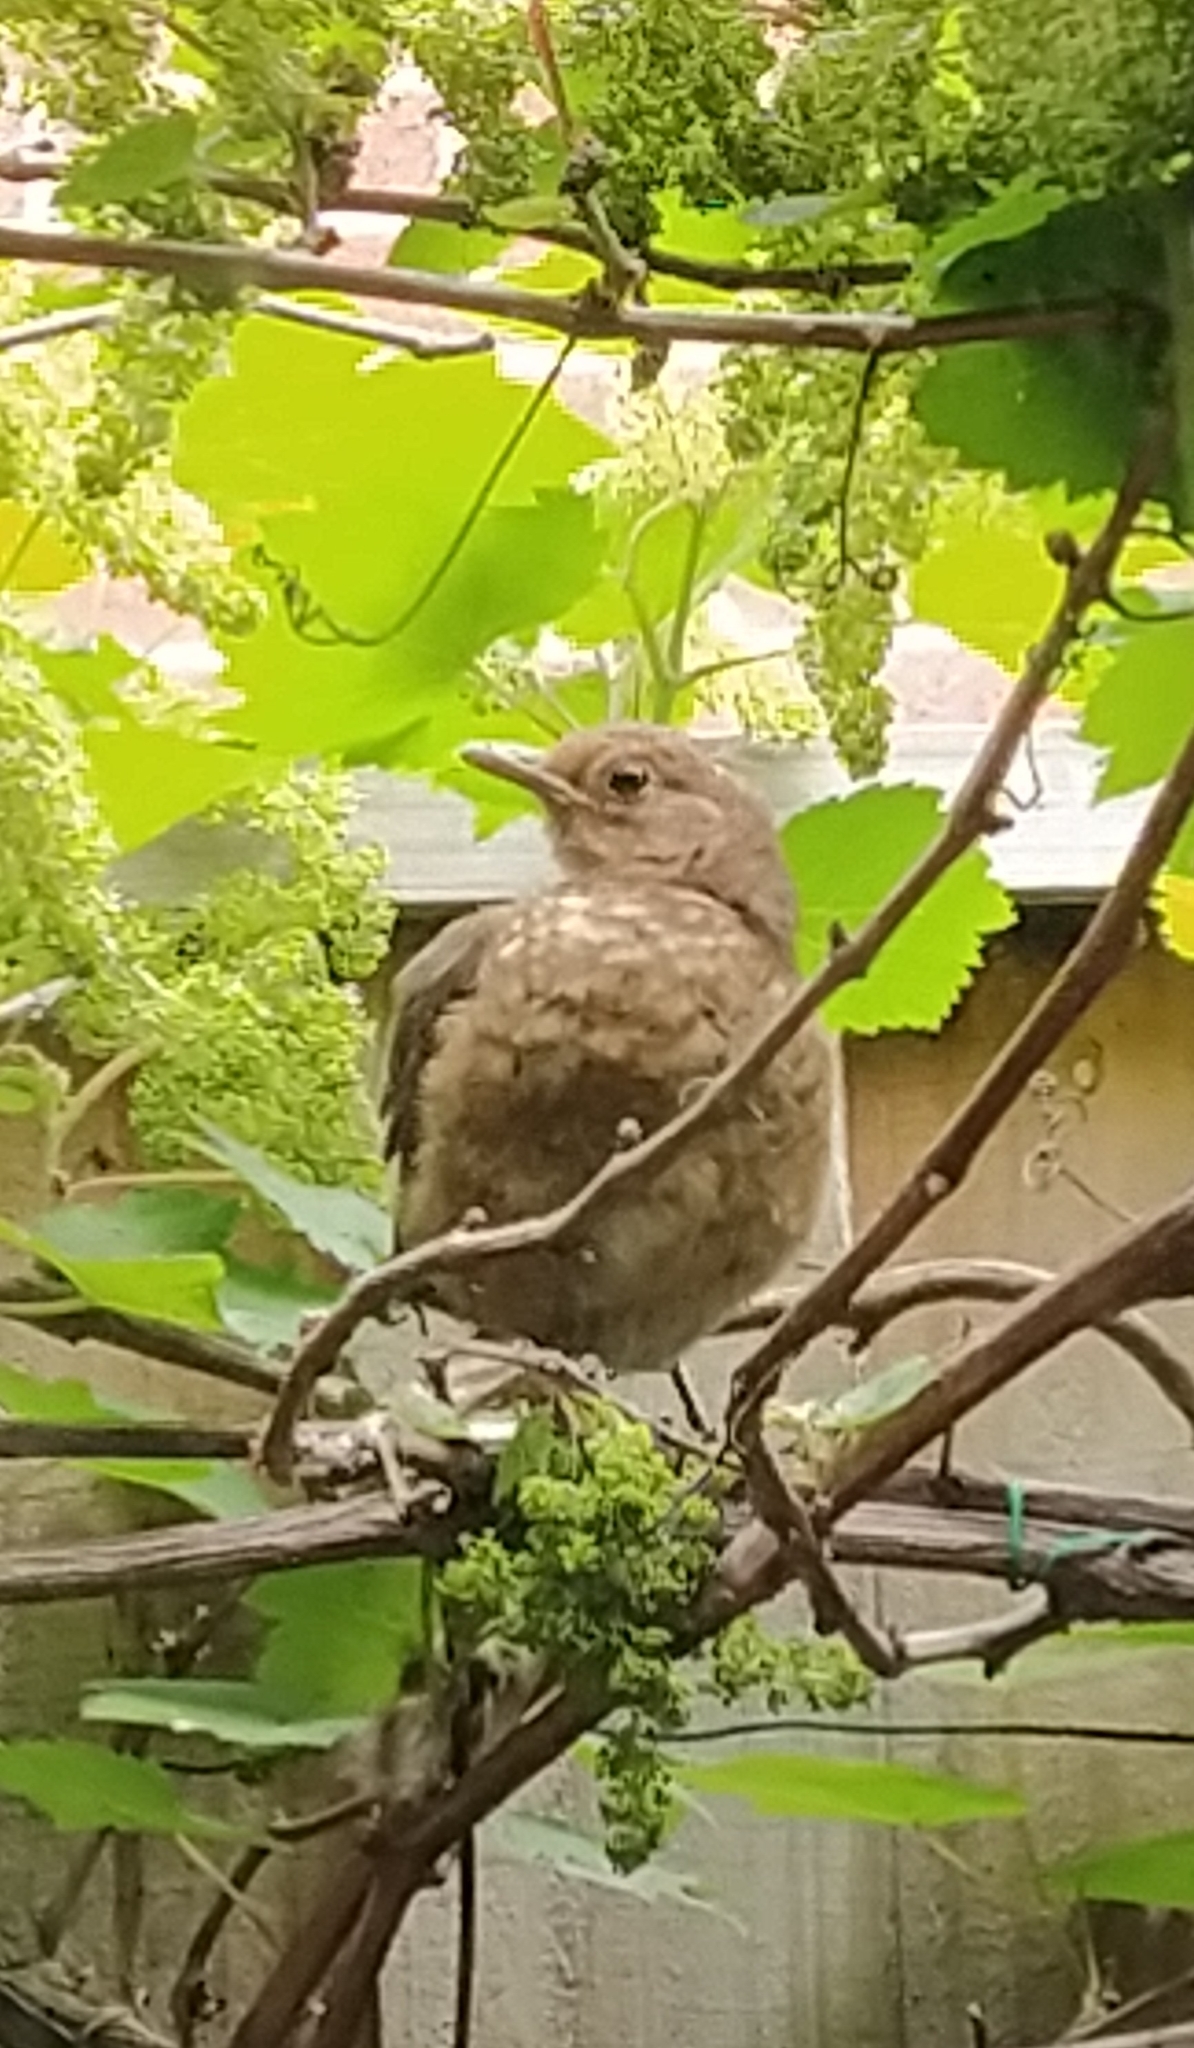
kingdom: Animalia
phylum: Chordata
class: Aves
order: Passeriformes
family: Turdidae
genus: Turdus
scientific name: Turdus merula
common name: Common blackbird
